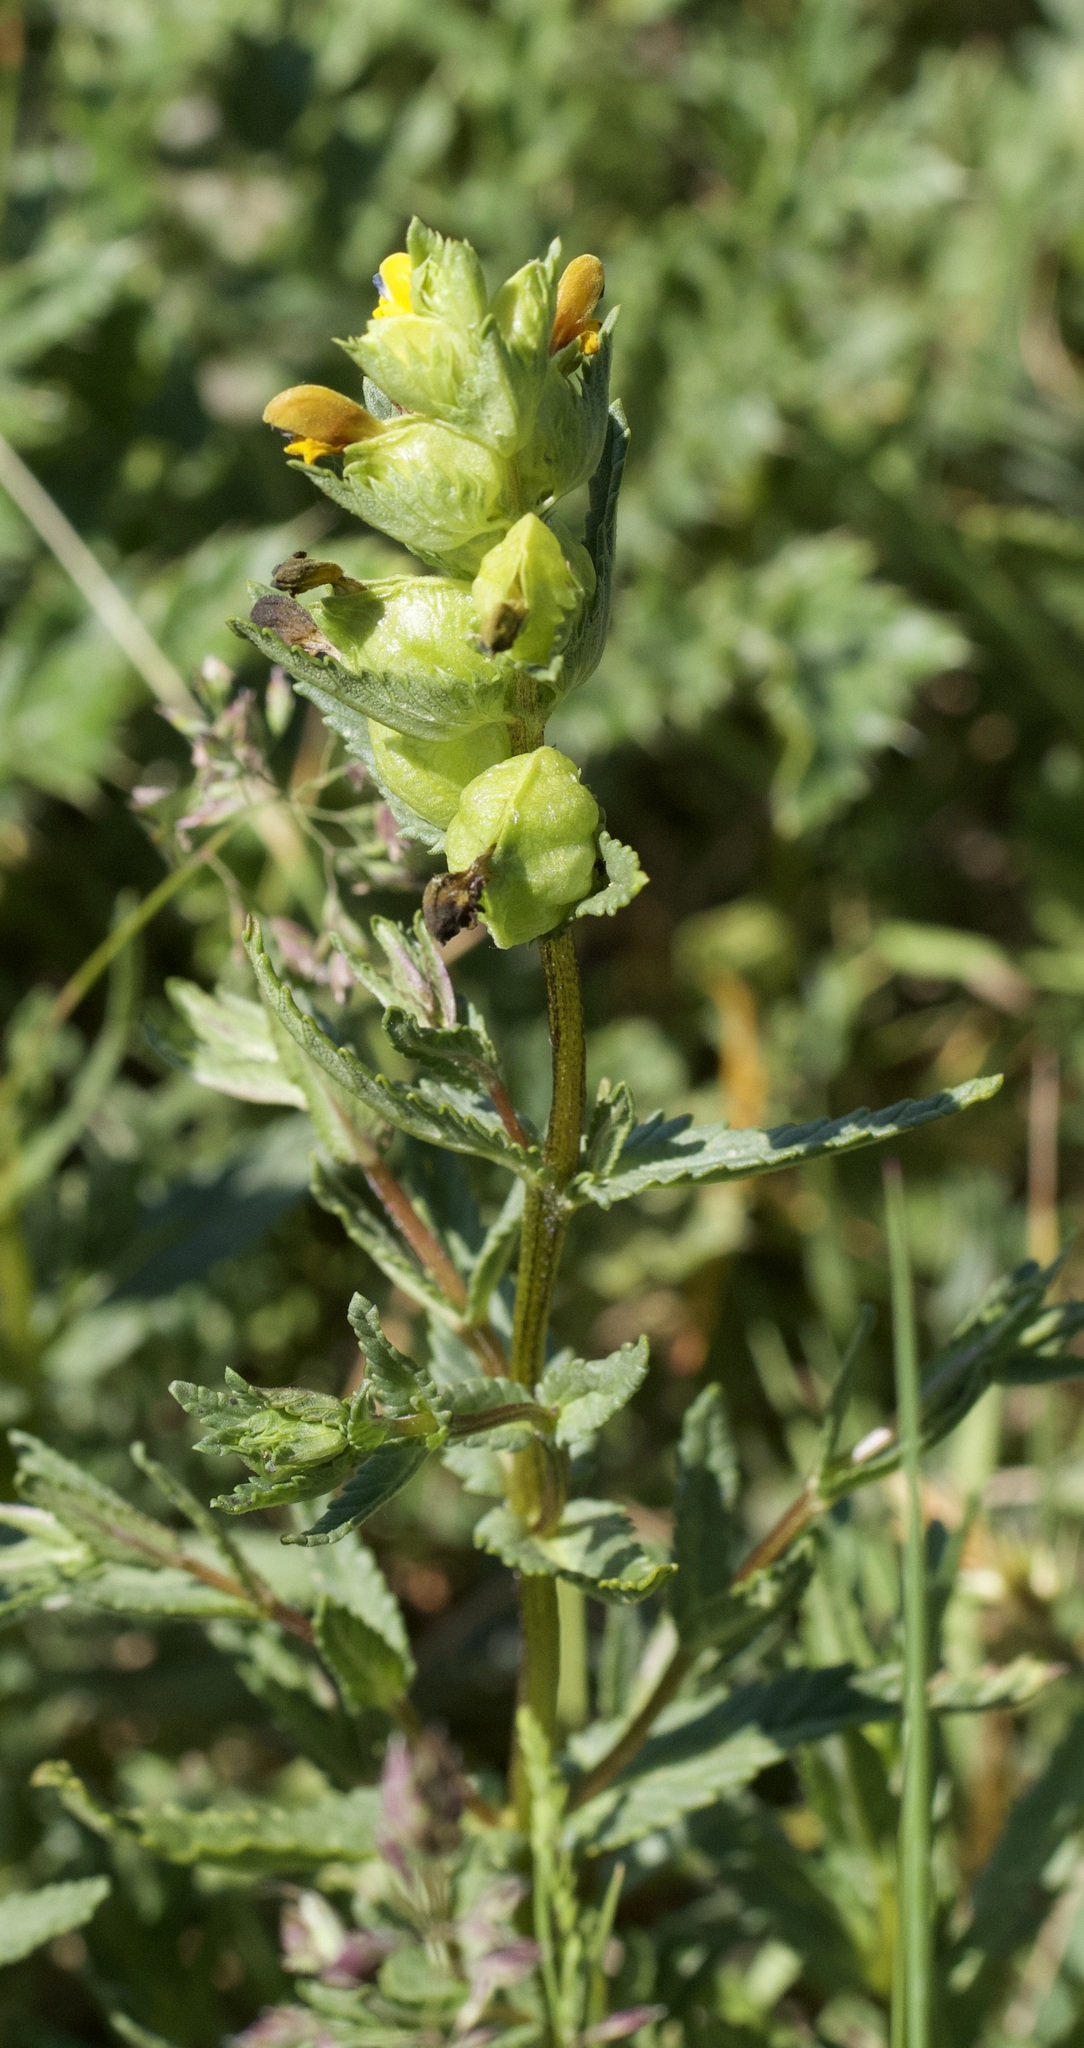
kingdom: Plantae
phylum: Tracheophyta
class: Magnoliopsida
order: Lamiales
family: Orobanchaceae
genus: Rhinanthus
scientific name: Rhinanthus minor
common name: Yellow-rattle
